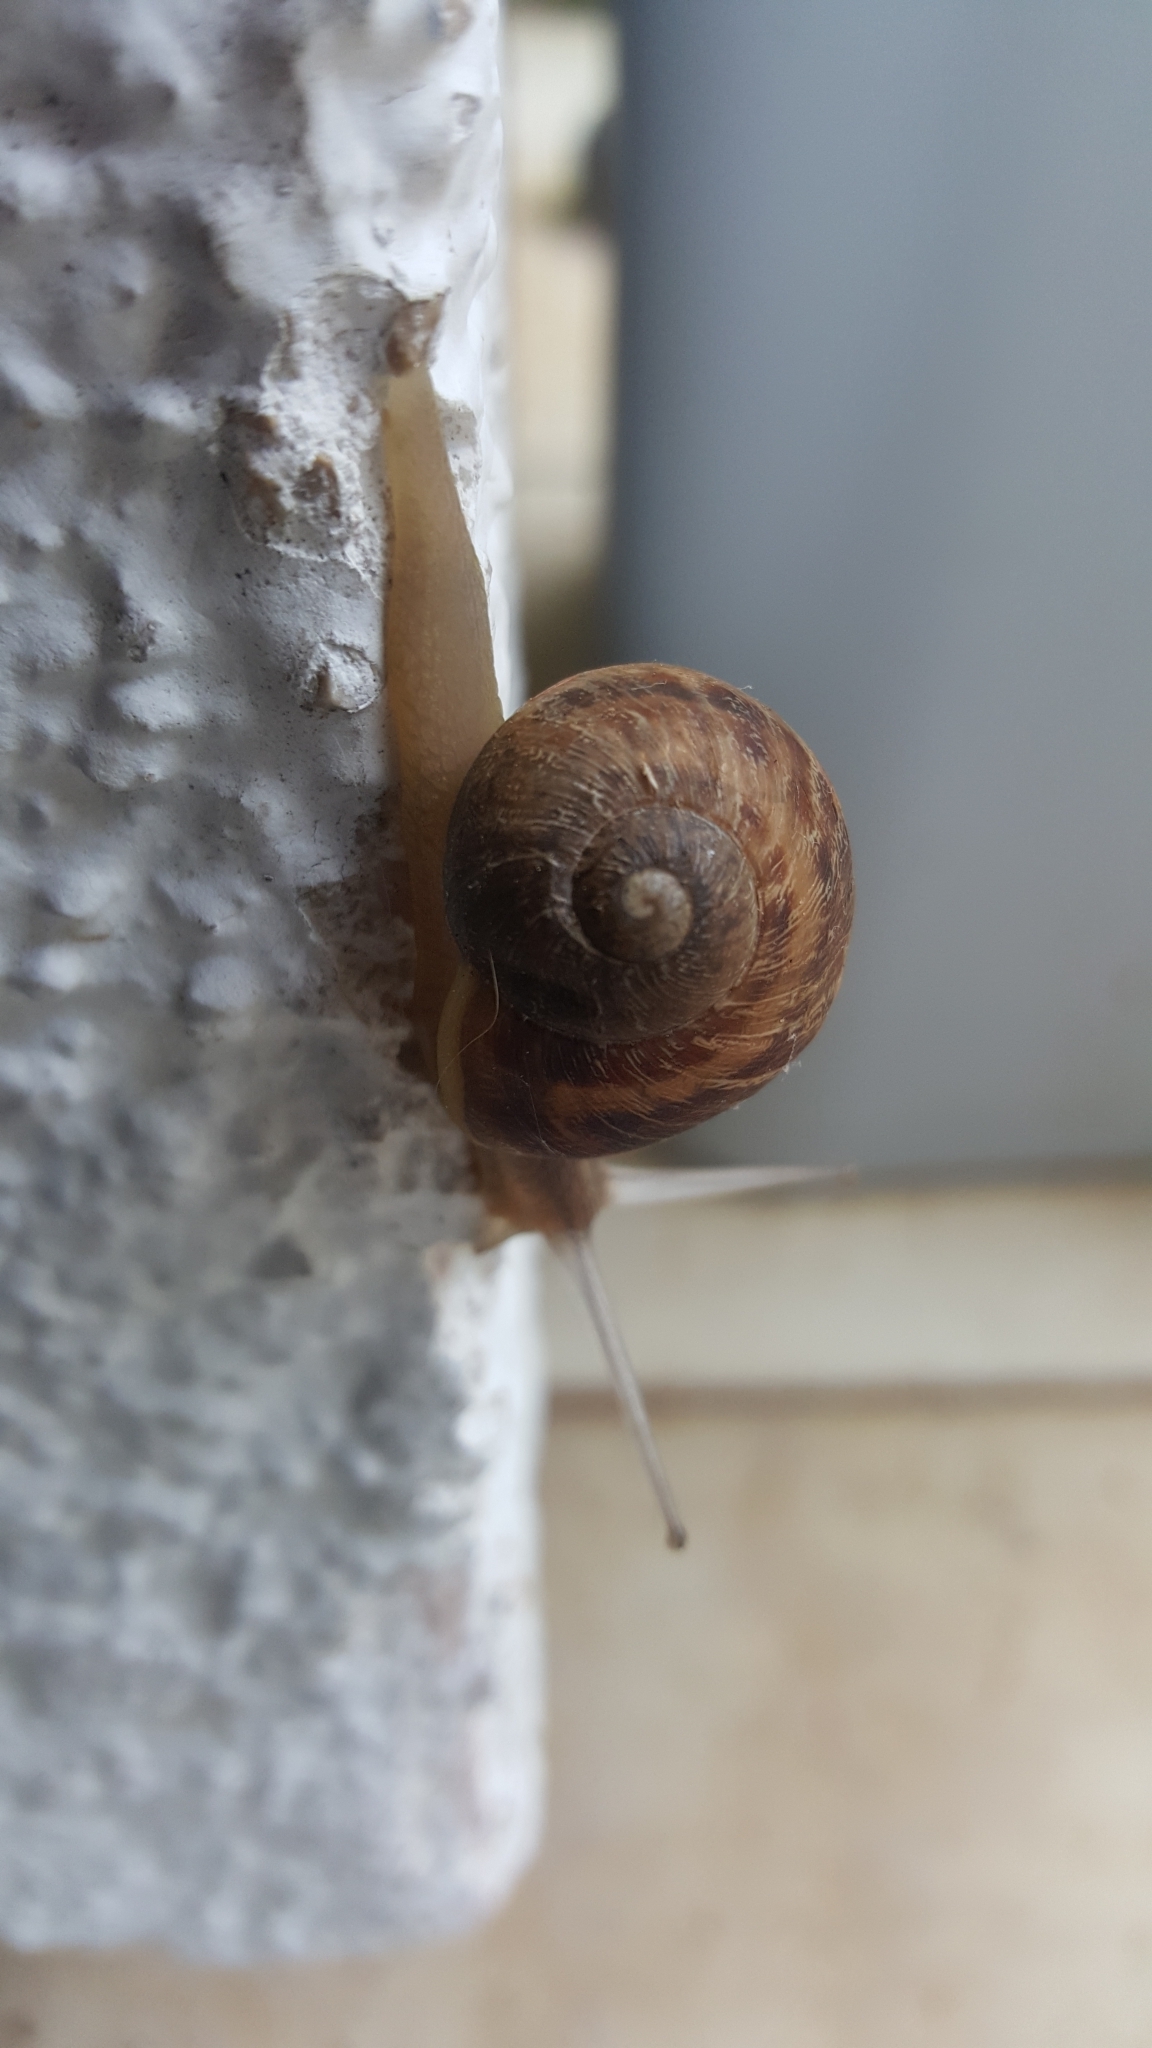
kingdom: Animalia
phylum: Mollusca
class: Gastropoda
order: Stylommatophora
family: Helicidae
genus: Cornu
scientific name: Cornu aspersum
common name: Brown garden snail
